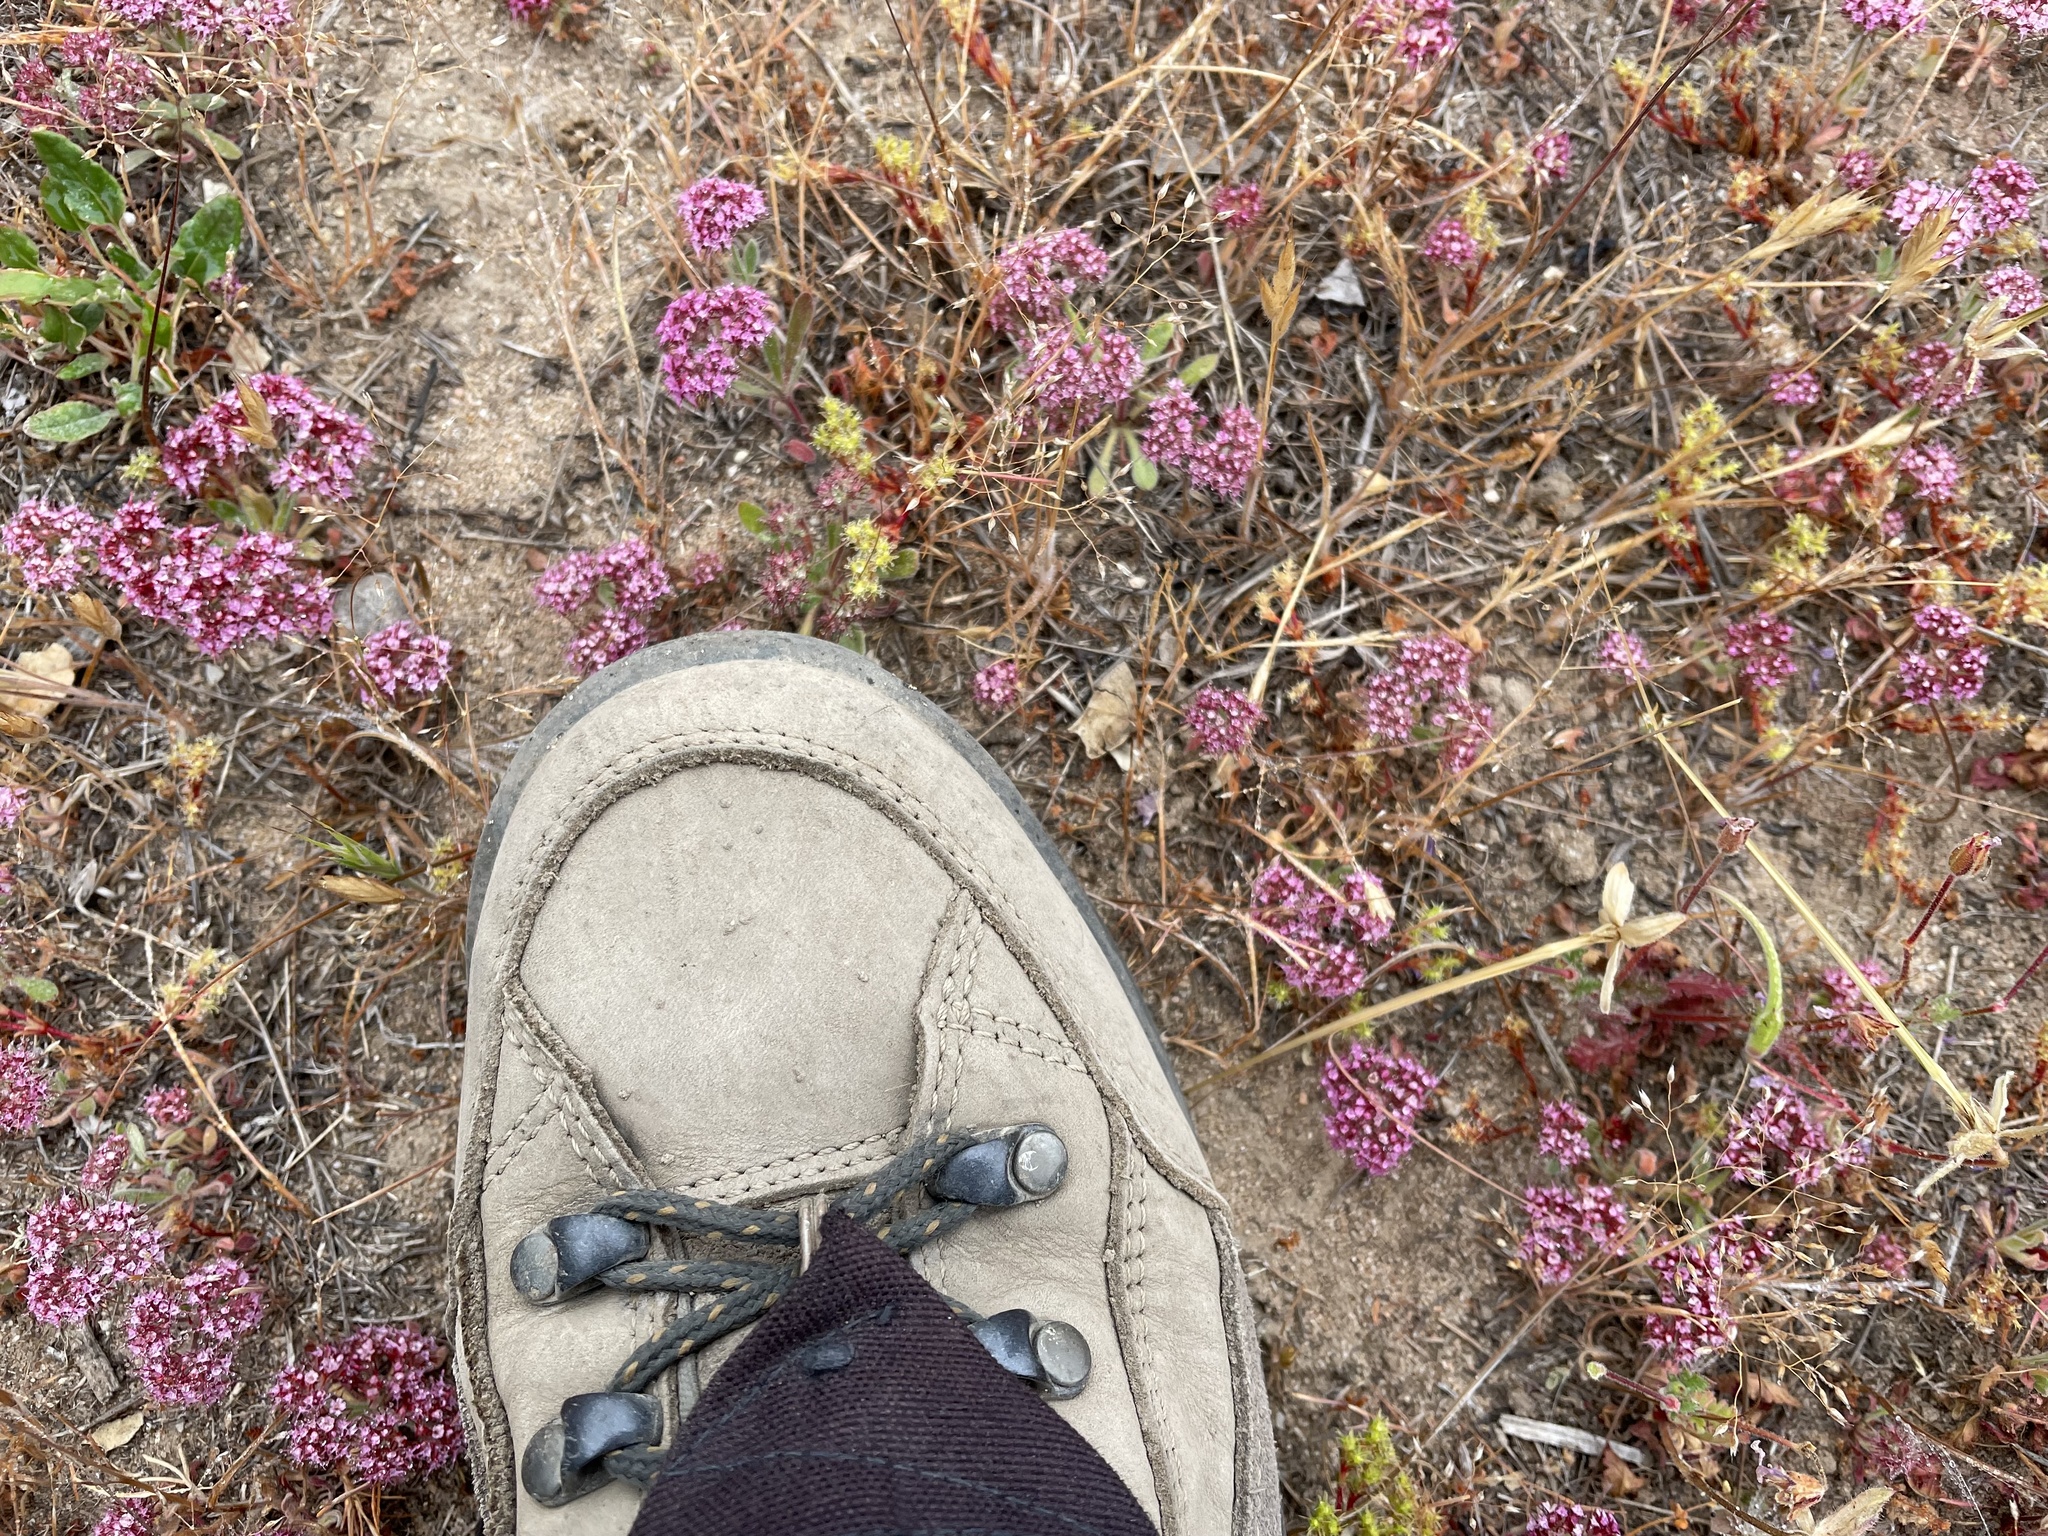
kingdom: Plantae
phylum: Tracheophyta
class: Magnoliopsida
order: Caryophyllales
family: Polygonaceae
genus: Lastarriaea
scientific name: Lastarriaea coriacea
